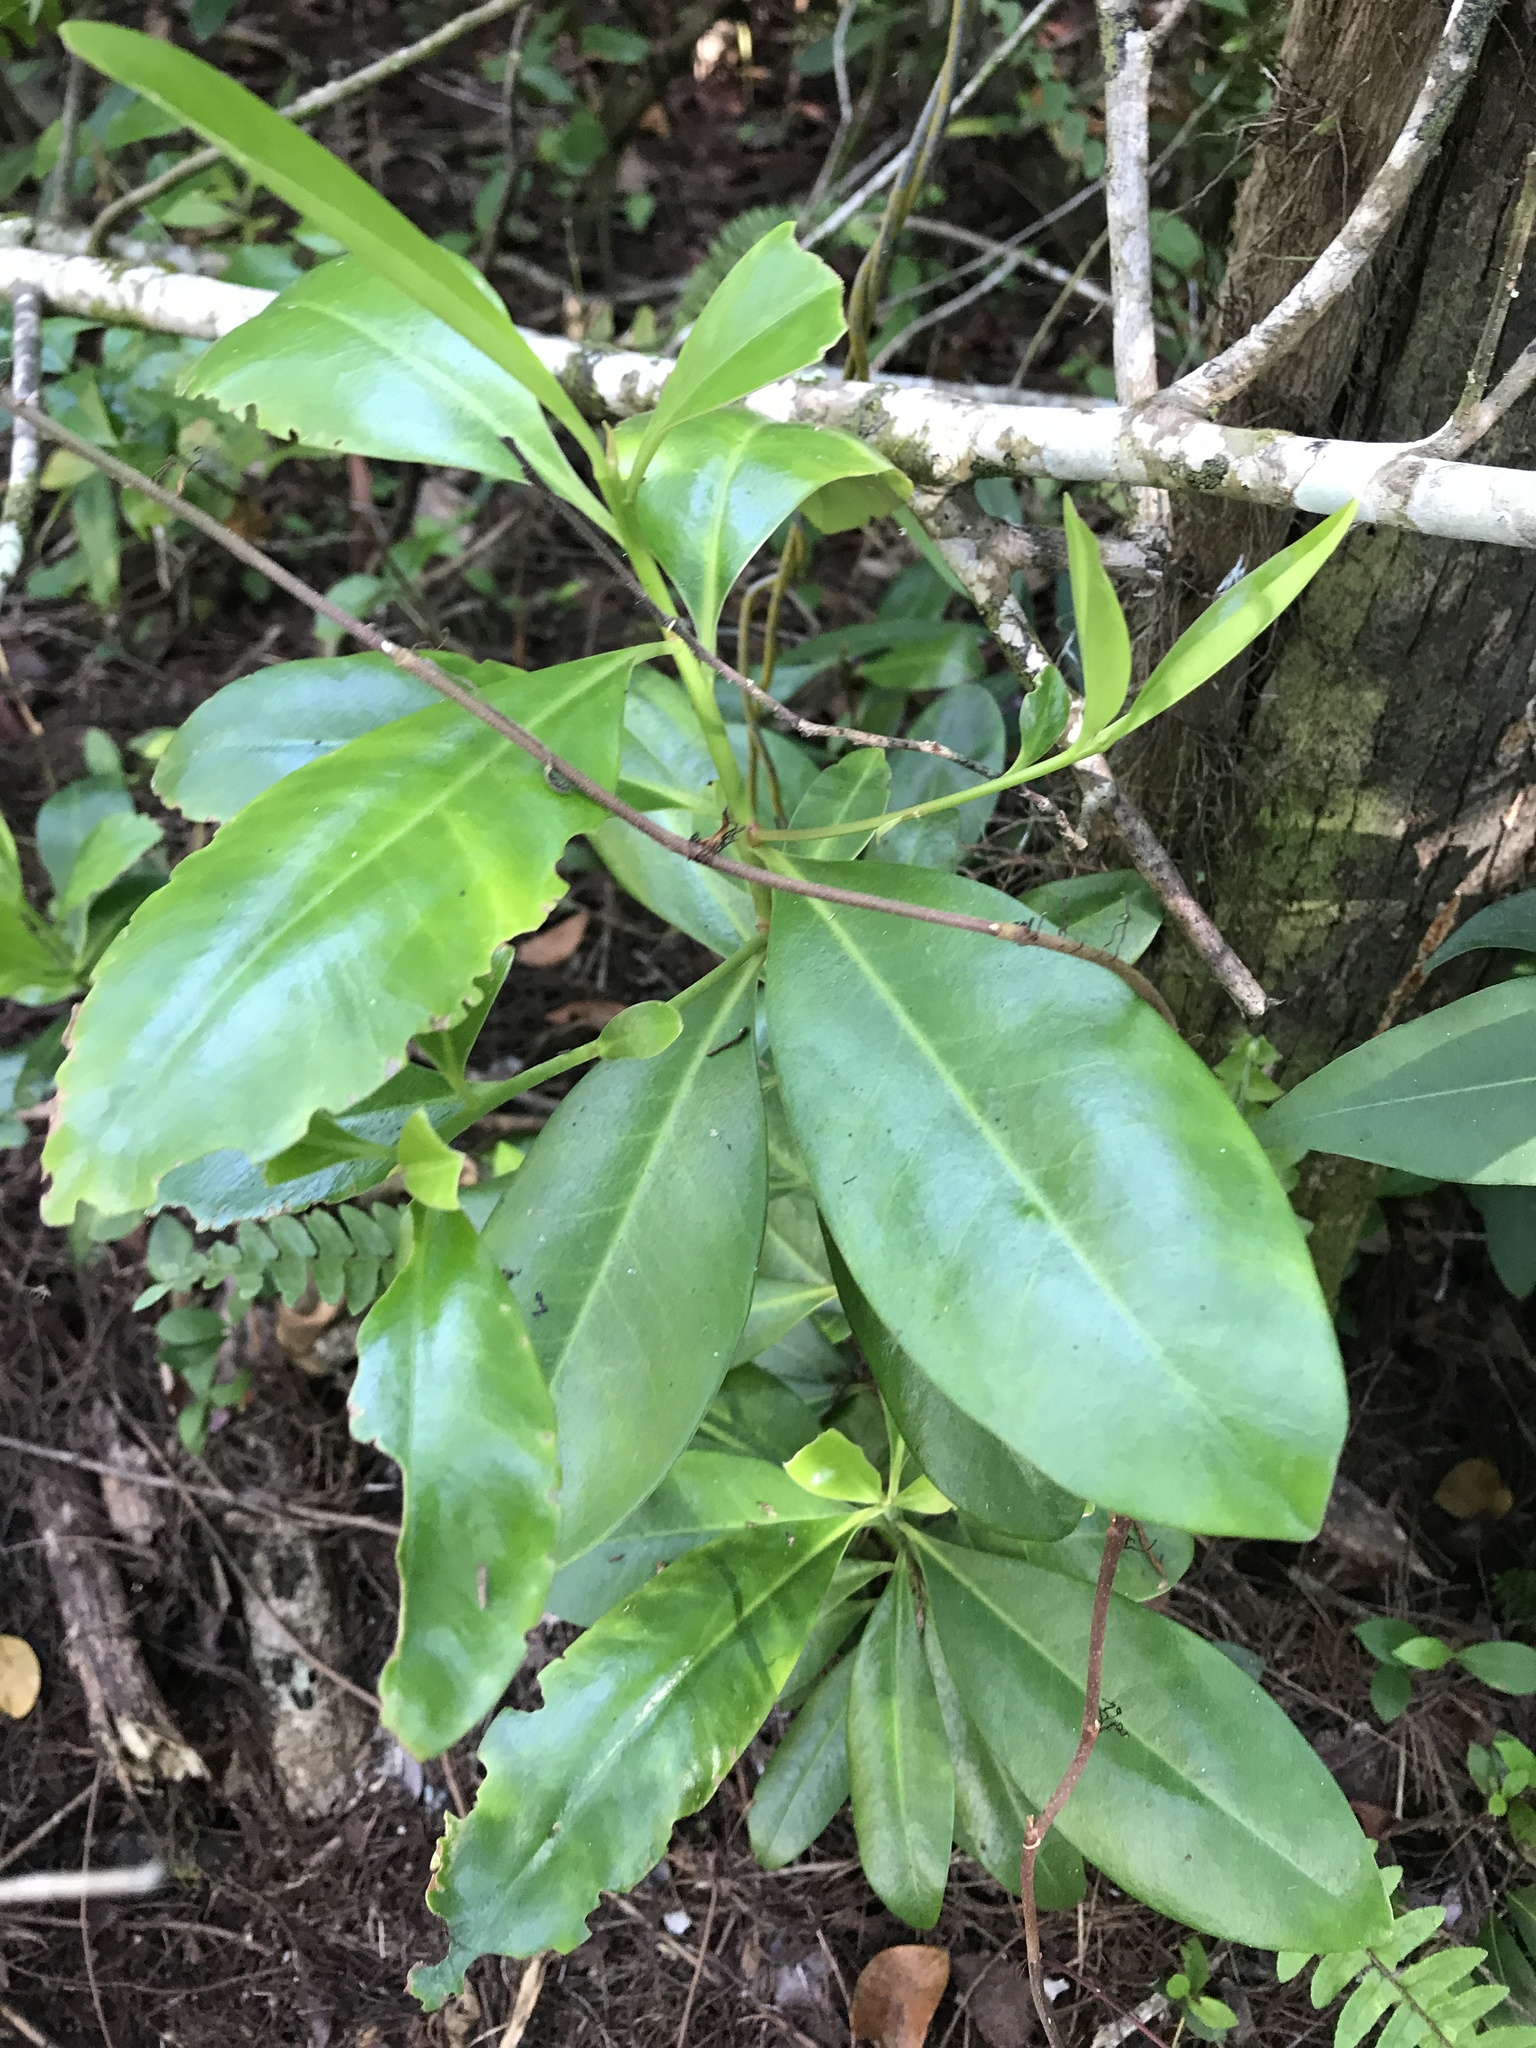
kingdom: Plantae
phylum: Tracheophyta
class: Magnoliopsida
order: Ericales
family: Primulaceae
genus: Myrsine
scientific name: Myrsine floridana
